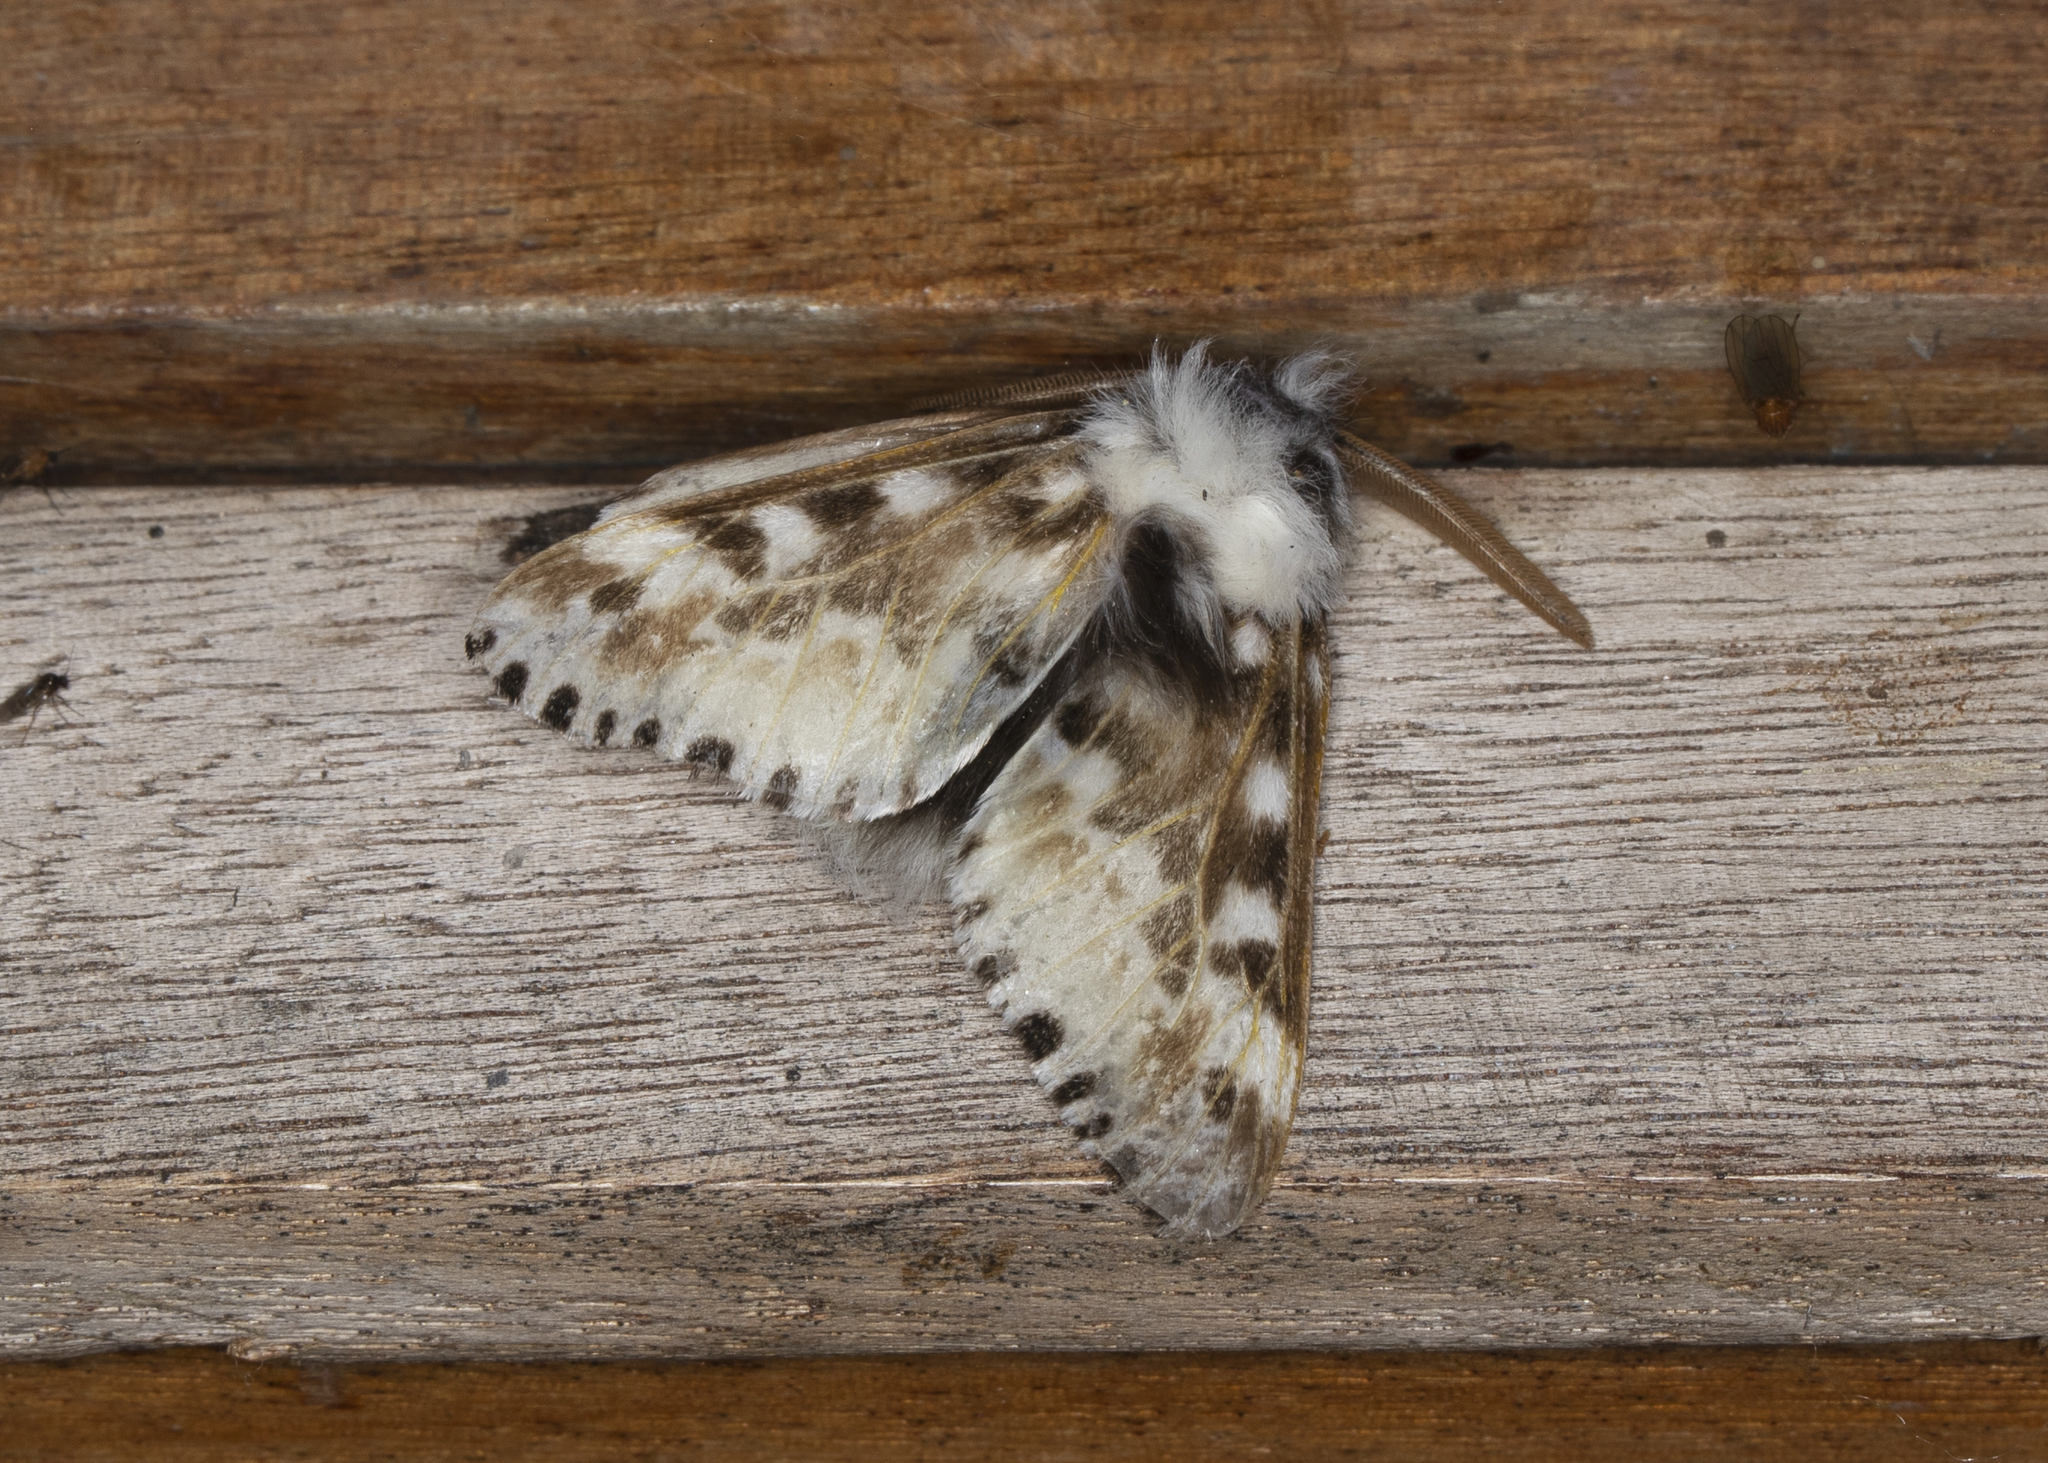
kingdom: Animalia
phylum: Arthropoda
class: Insecta
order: Lepidoptera
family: Megalopygidae
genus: Podalia
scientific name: Podalia pedacia
